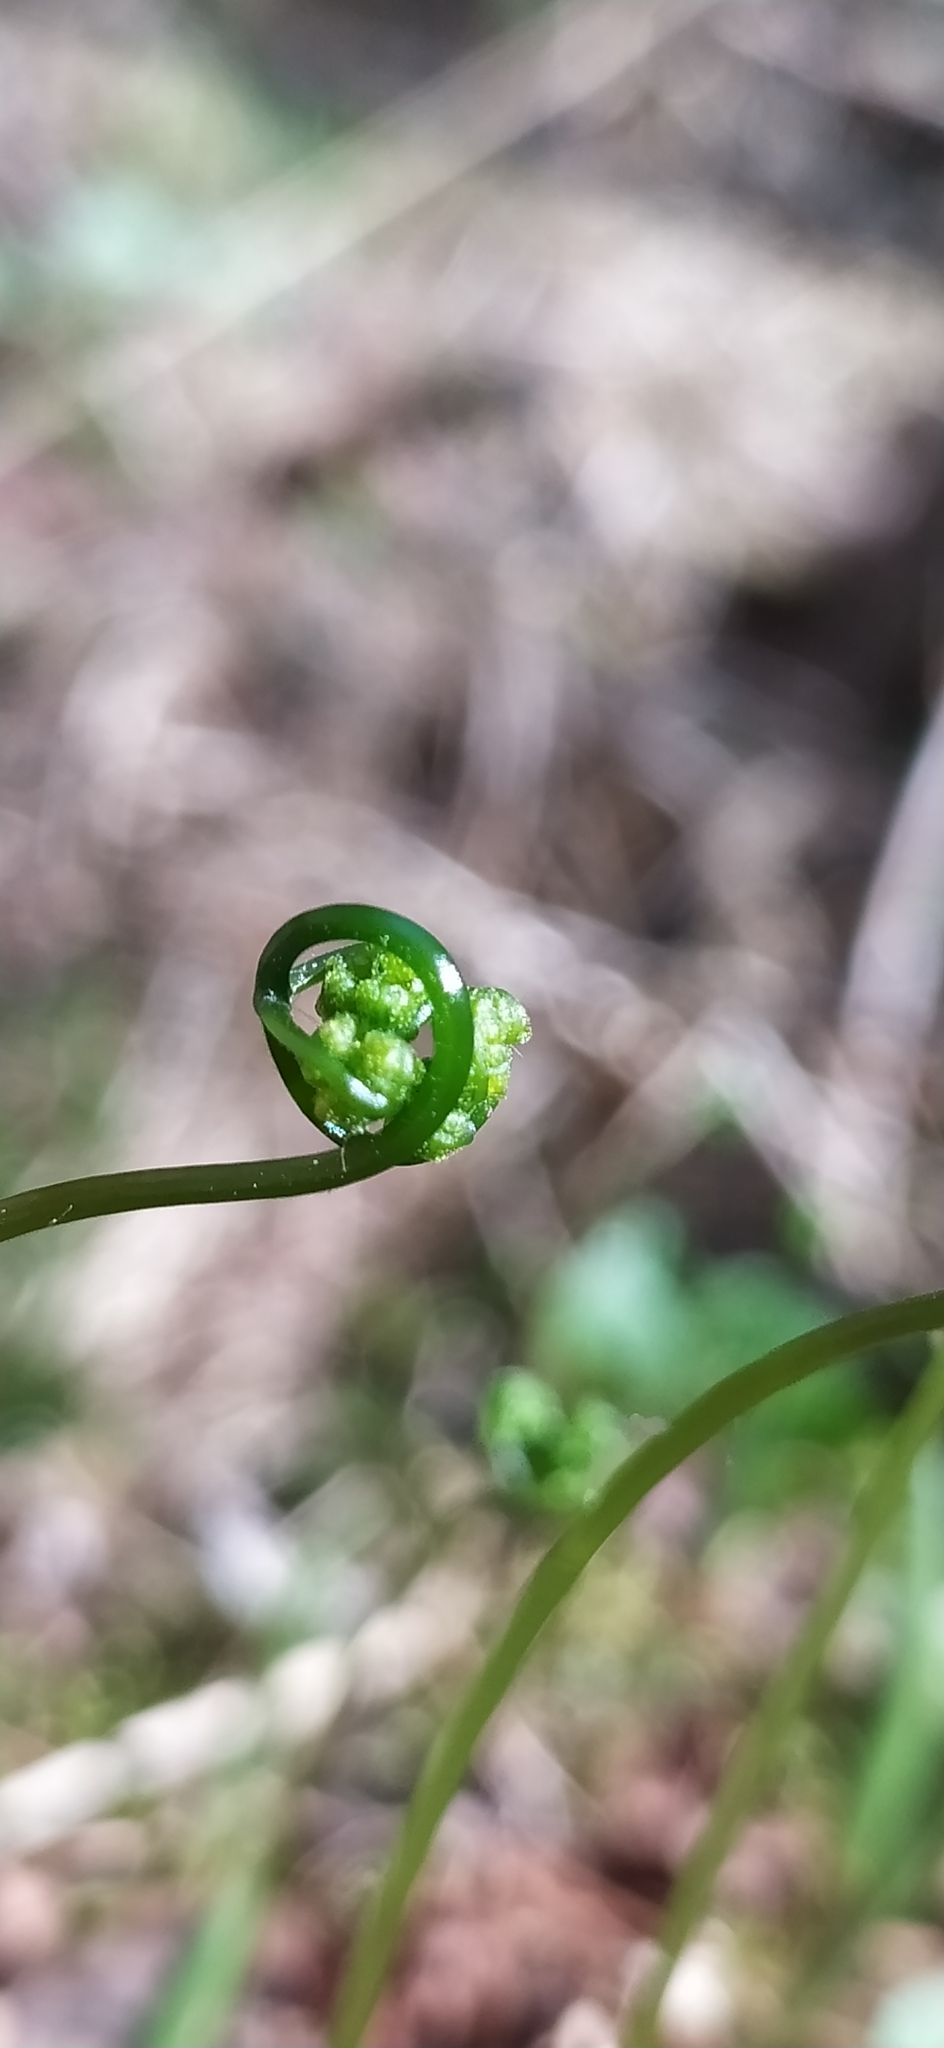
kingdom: Plantae
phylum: Tracheophyta
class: Polypodiopsida
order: Polypodiales
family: Cystopteridaceae
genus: Gymnocarpium
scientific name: Gymnocarpium dryopteris
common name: Oak fern
